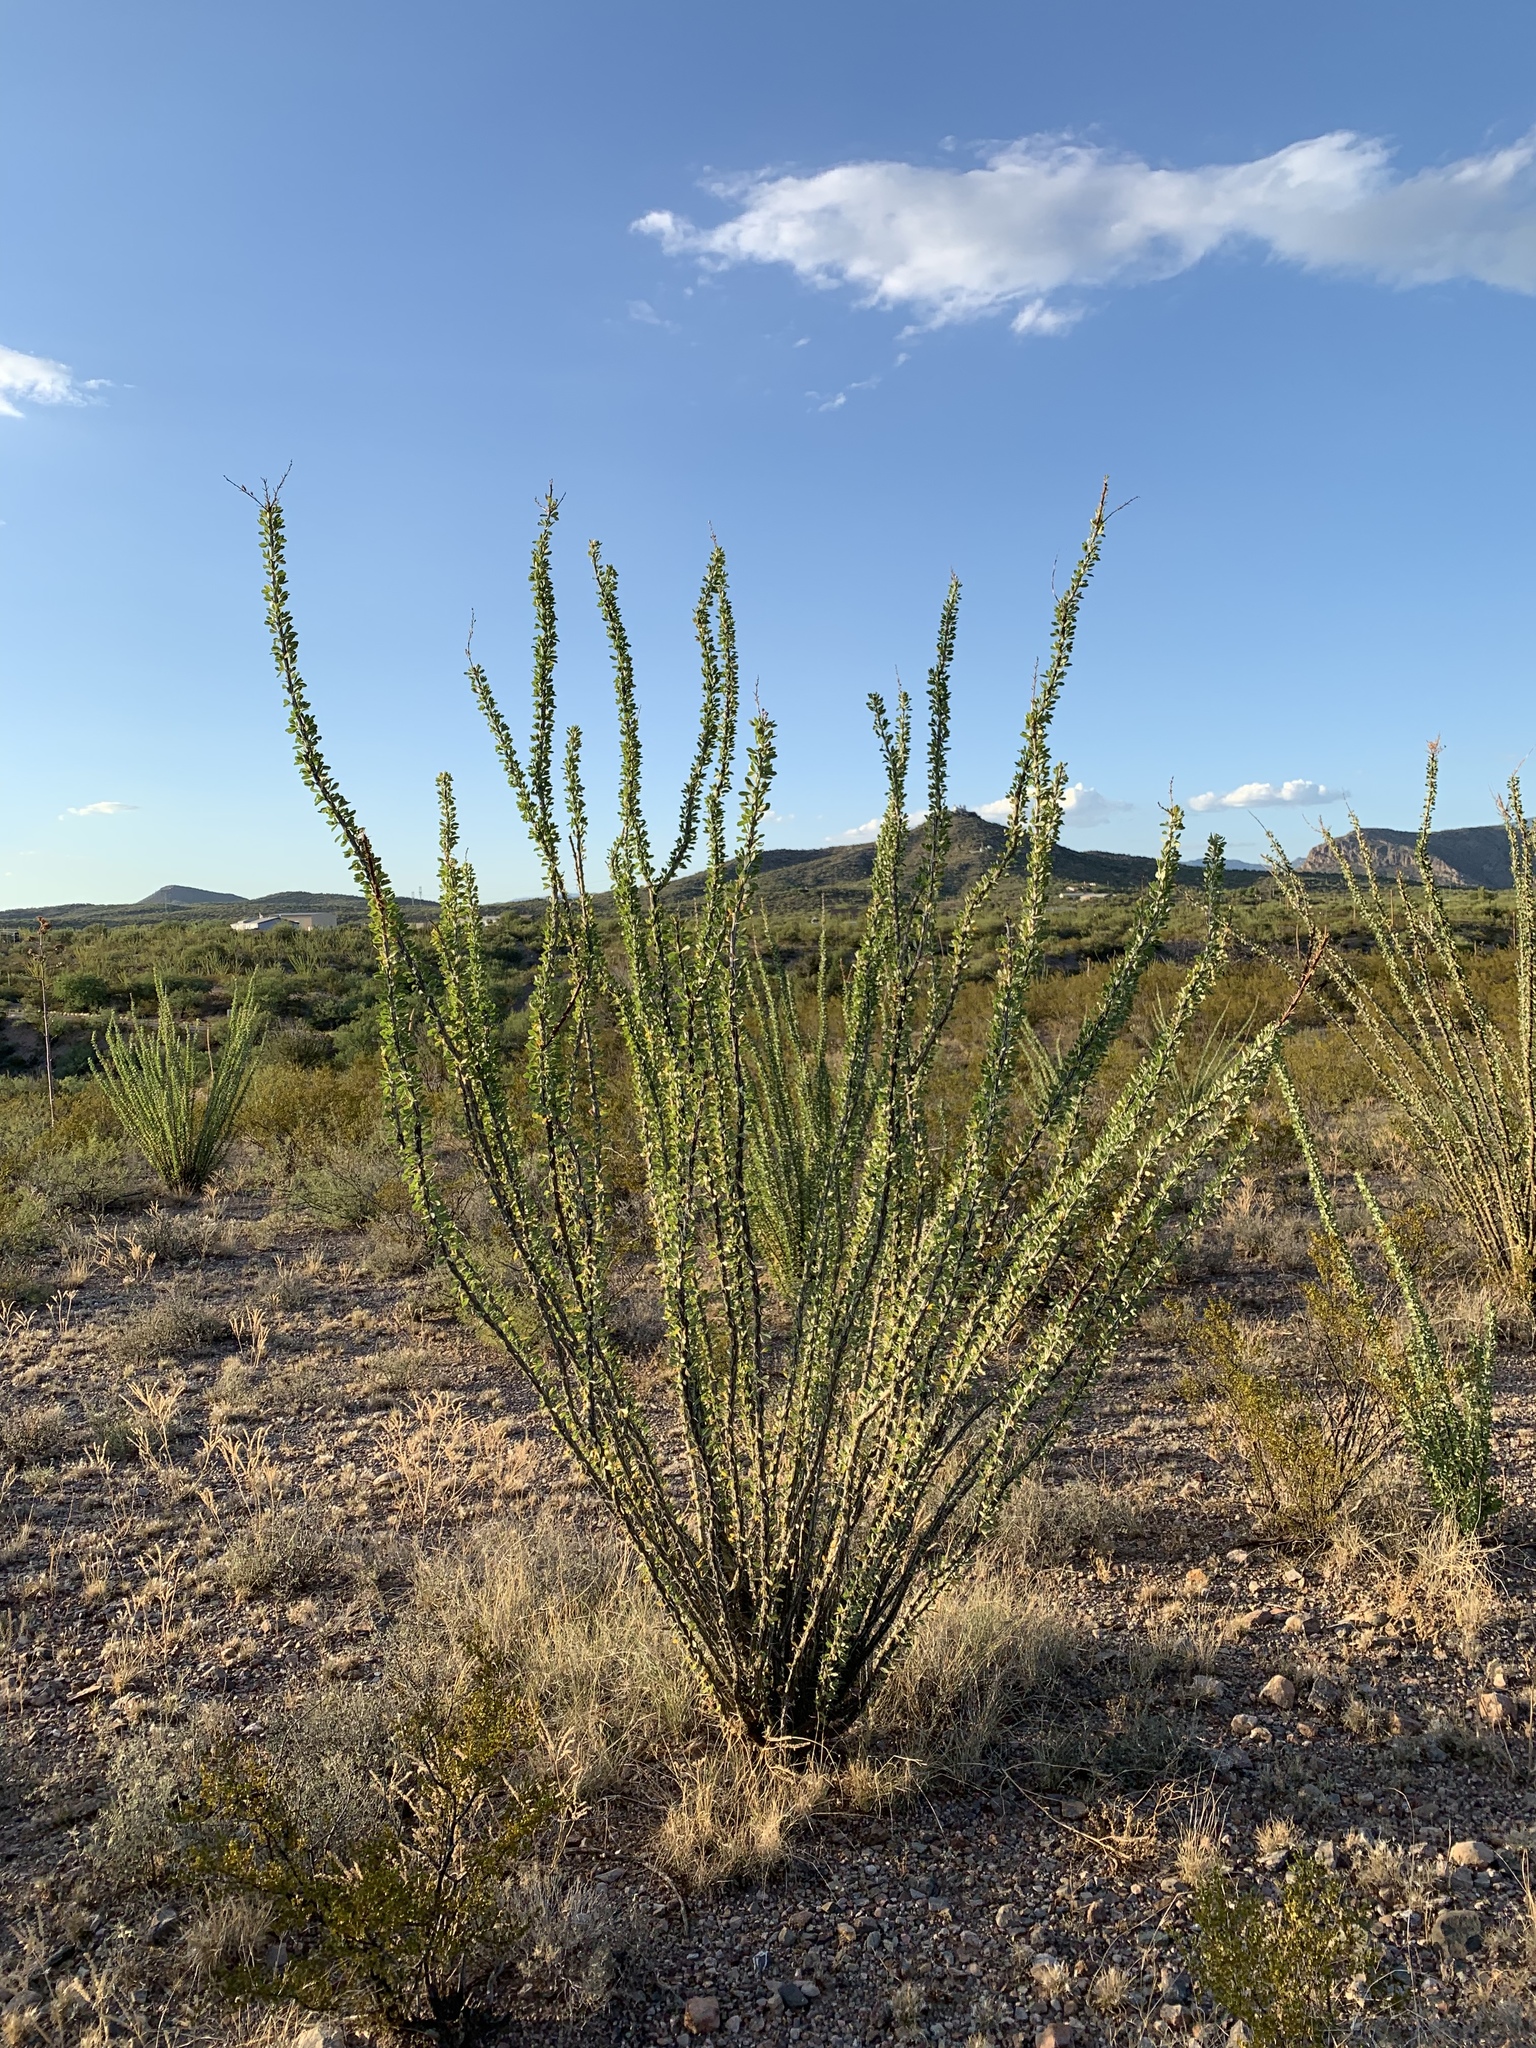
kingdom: Plantae
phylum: Tracheophyta
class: Magnoliopsida
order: Ericales
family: Fouquieriaceae
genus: Fouquieria
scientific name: Fouquieria splendens
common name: Vine-cactus
